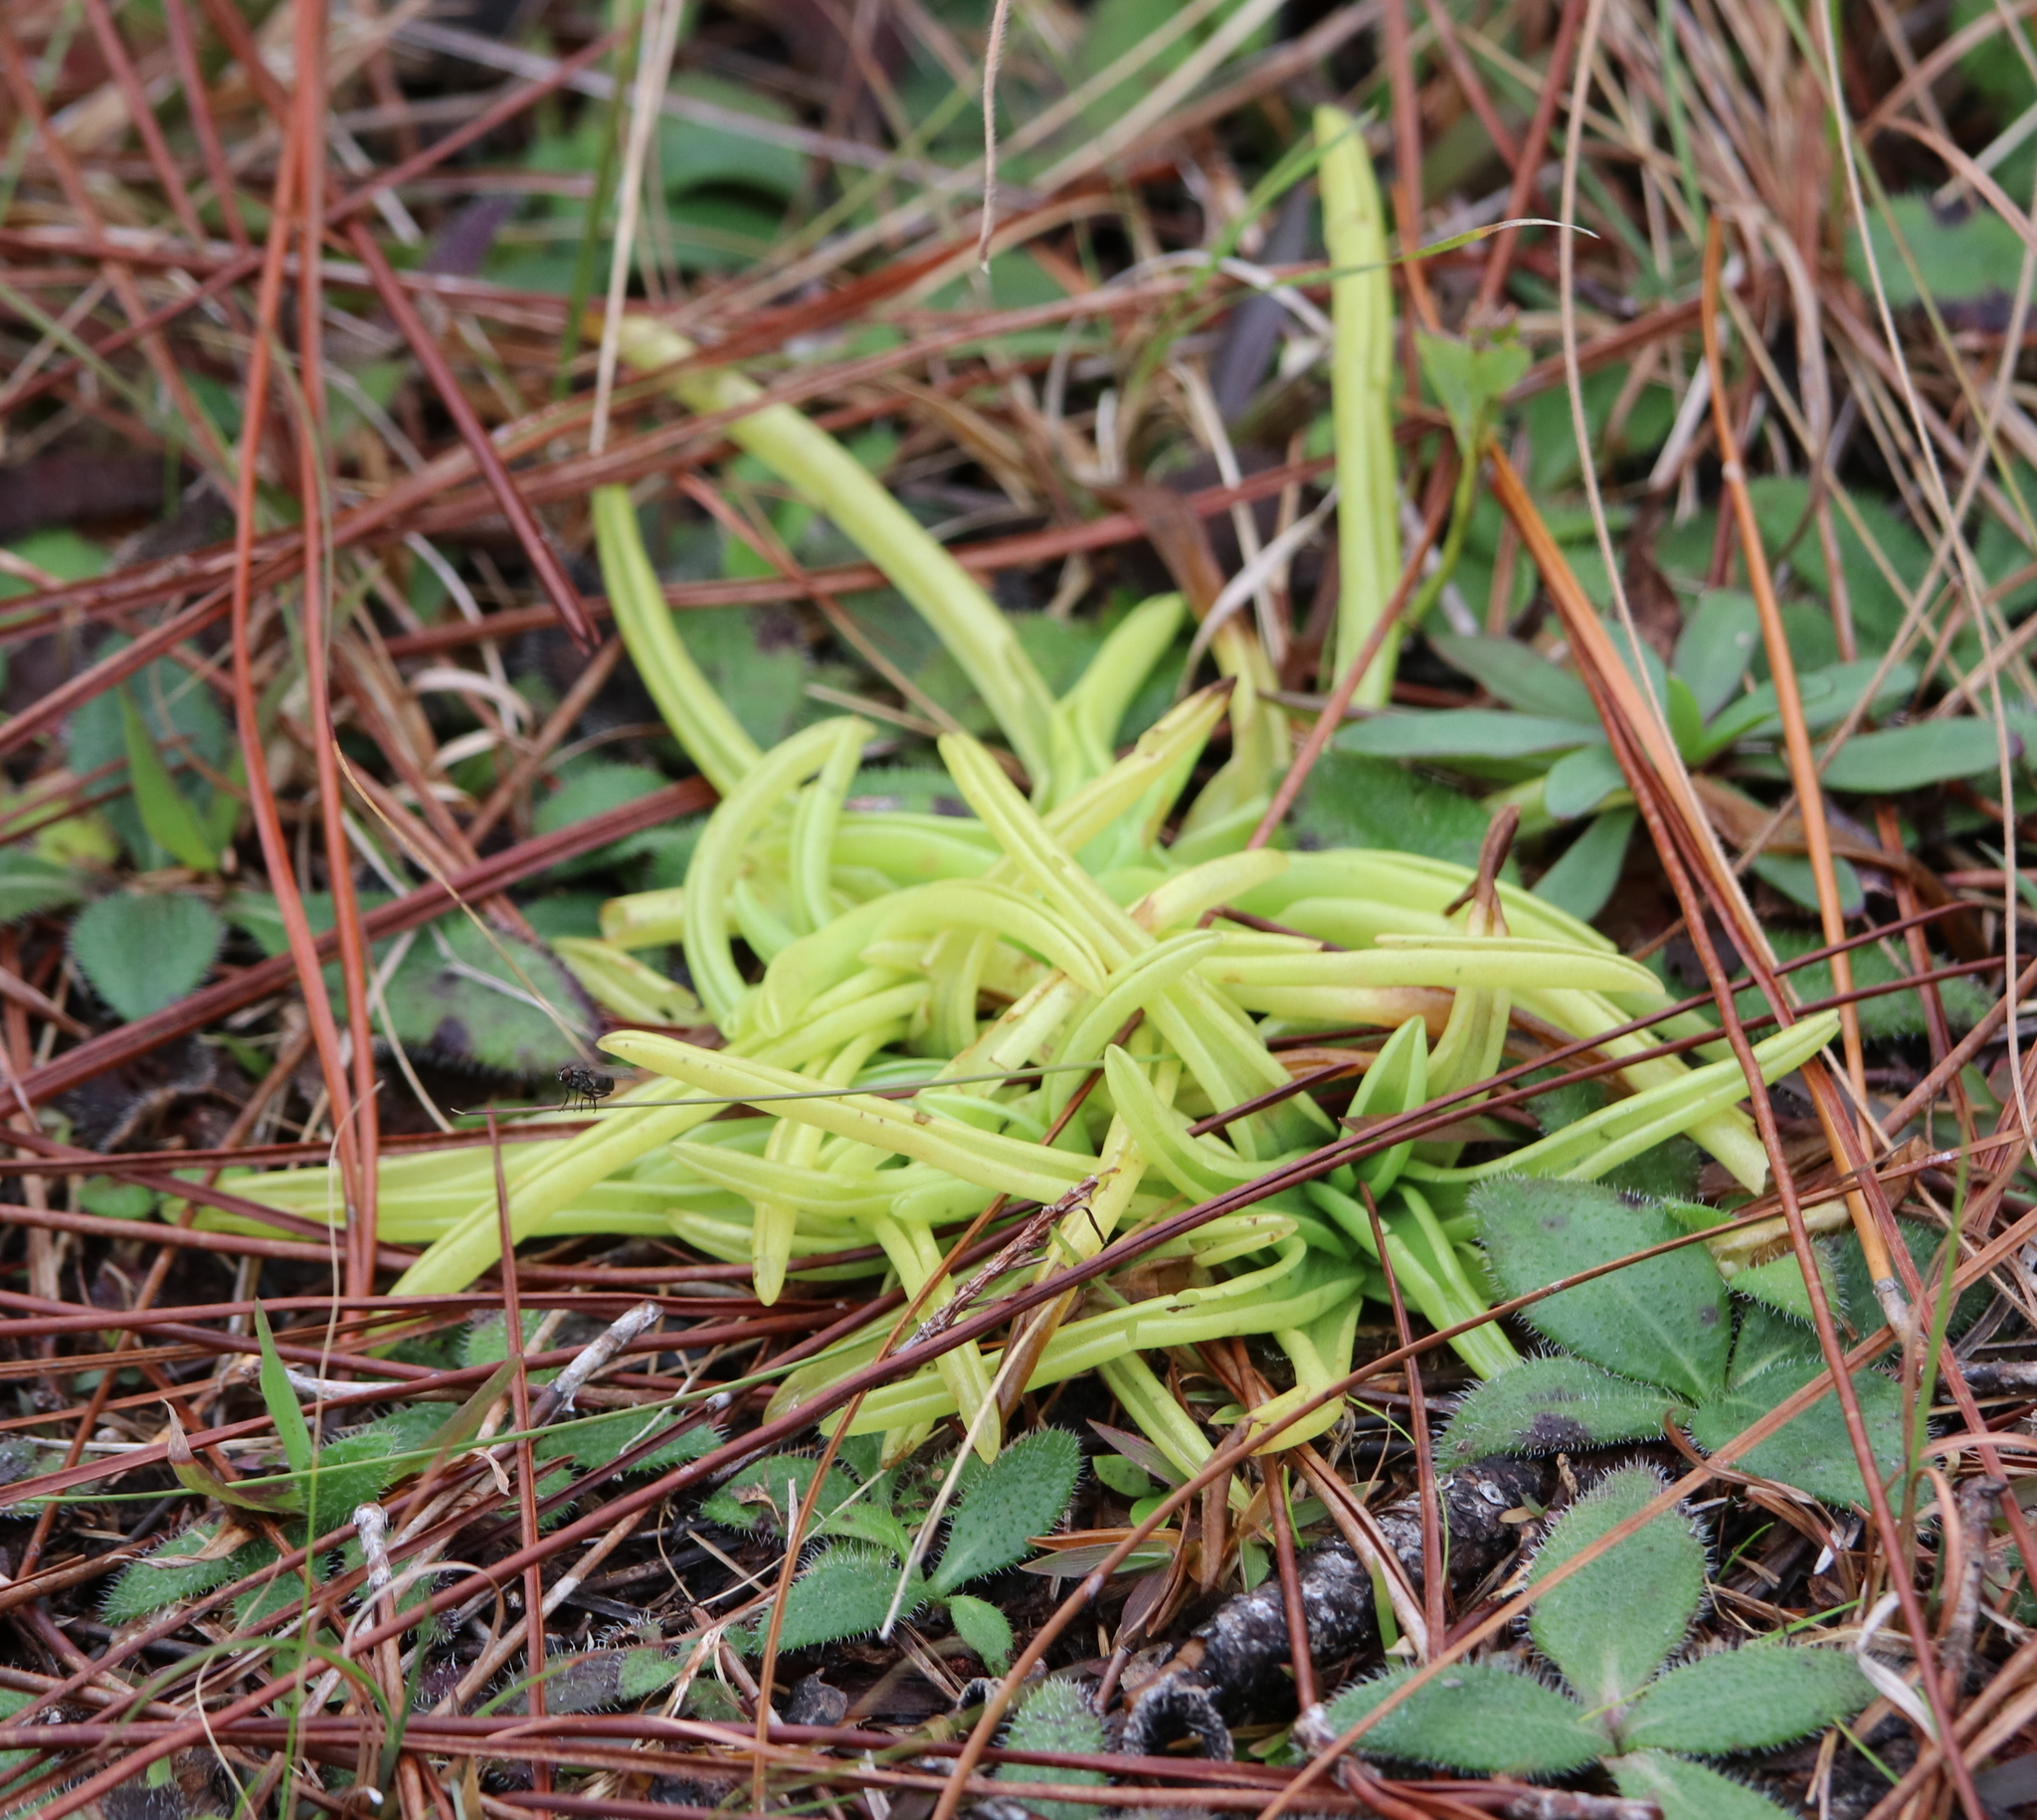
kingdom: Plantae
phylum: Tracheophyta
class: Magnoliopsida
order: Lamiales
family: Lentibulariaceae
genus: Pinguicula
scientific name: Pinguicula lutea
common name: Yellow butterwort
